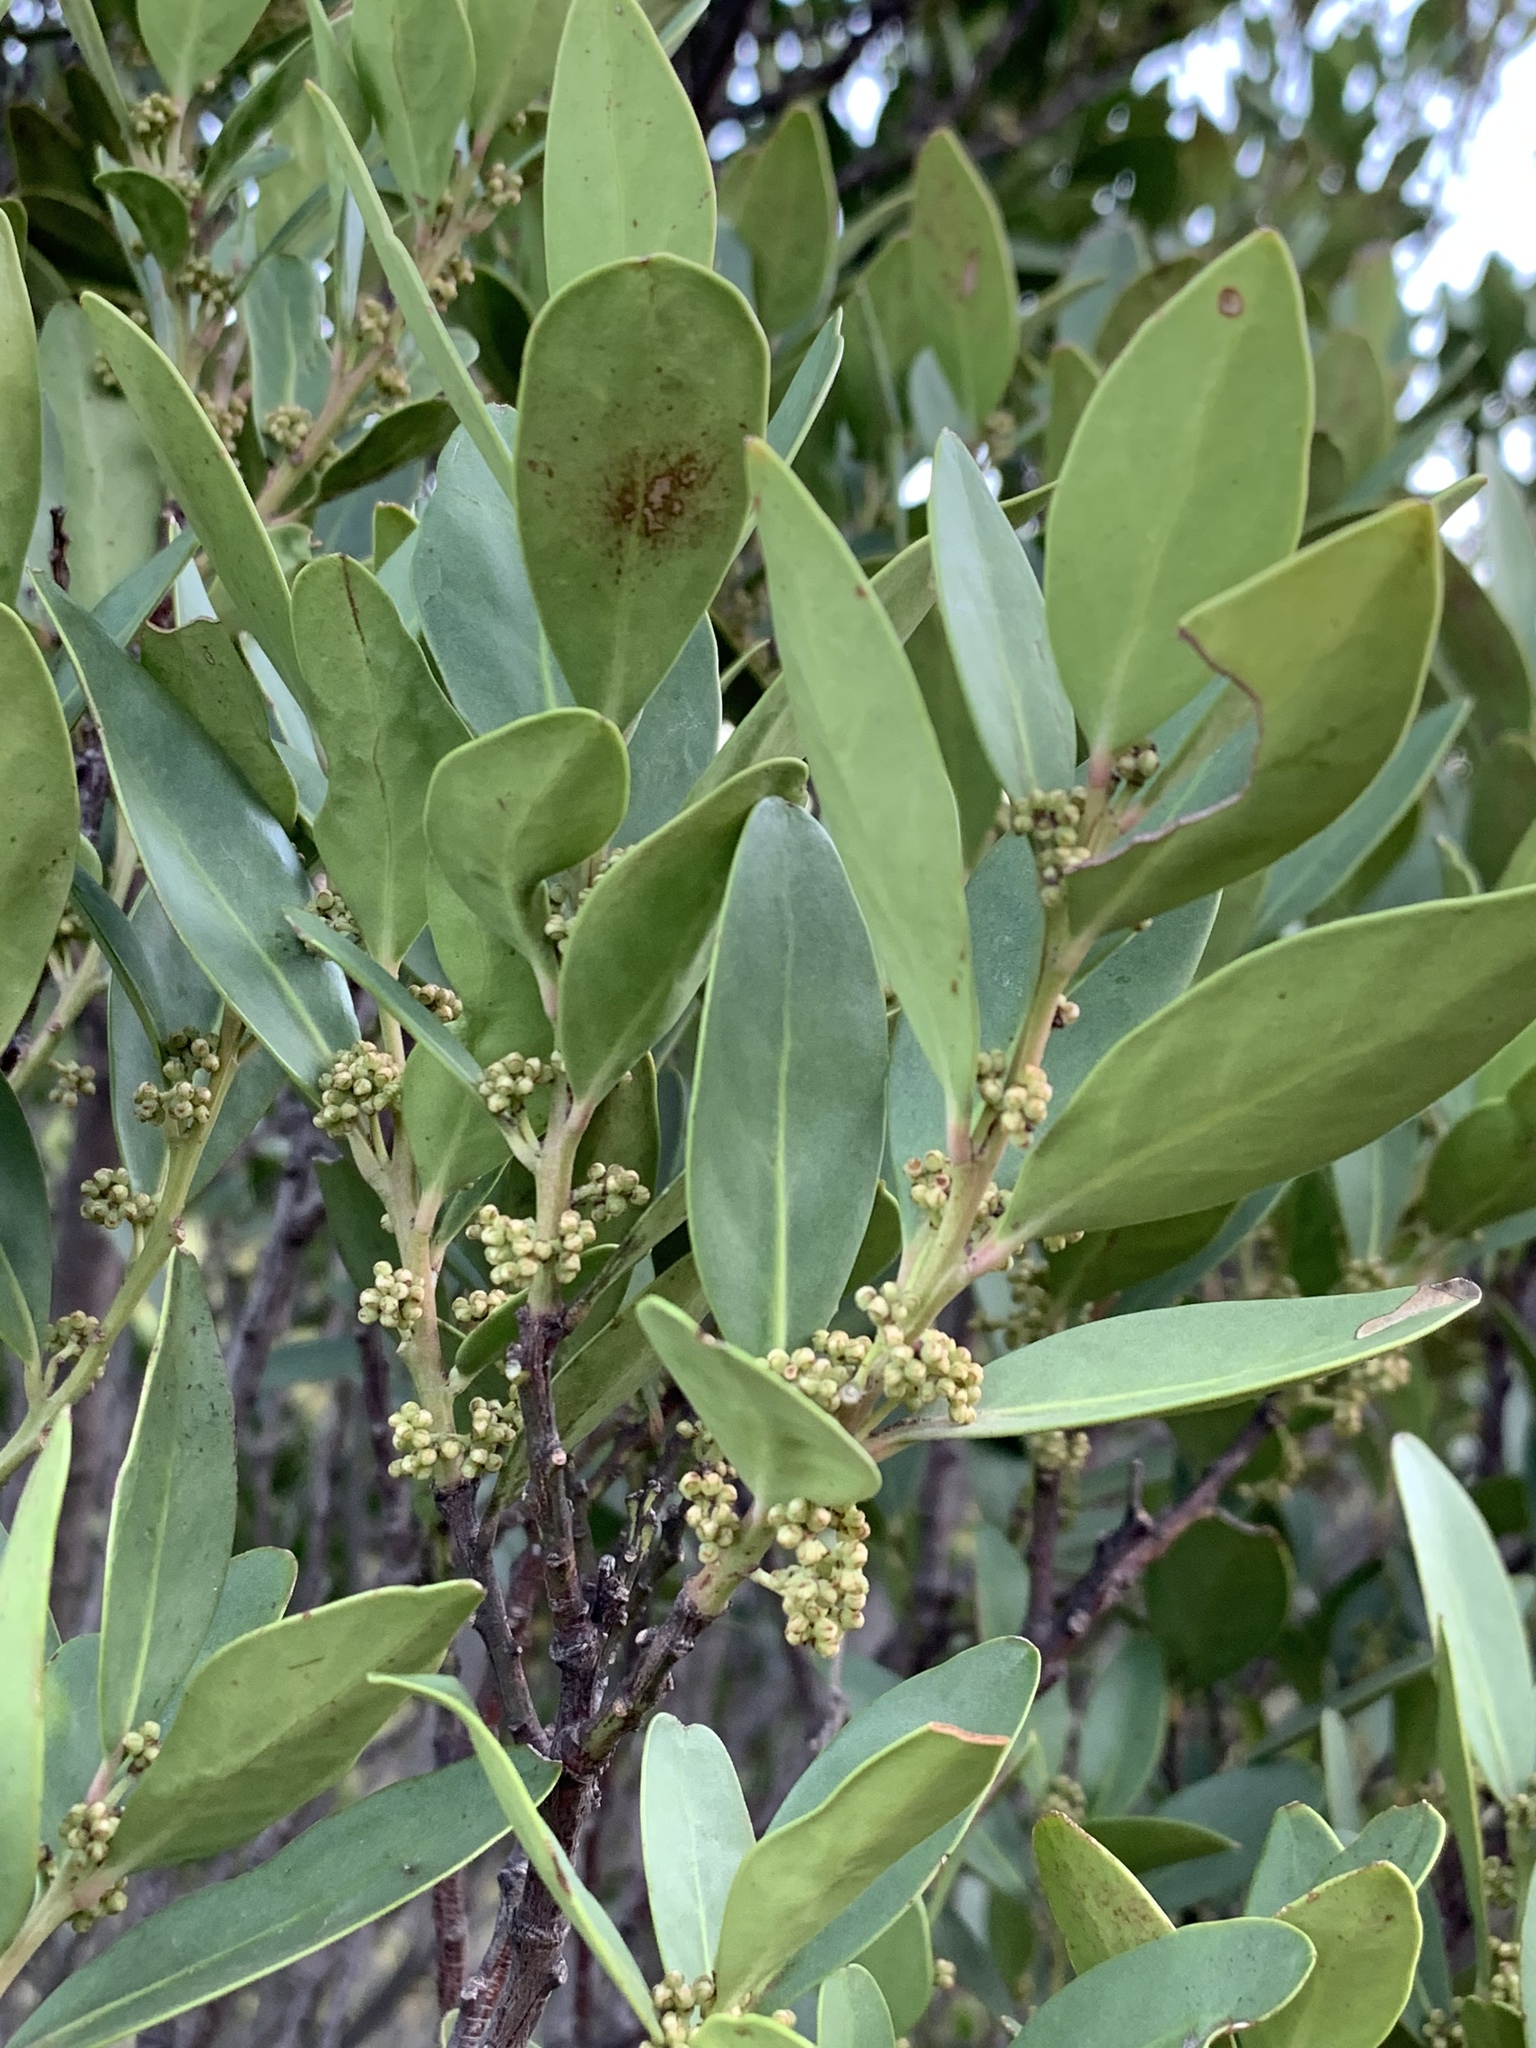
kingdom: Plantae
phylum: Tracheophyta
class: Magnoliopsida
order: Celastrales
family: Celastraceae
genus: Gymnosporia
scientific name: Gymnosporia laurina
